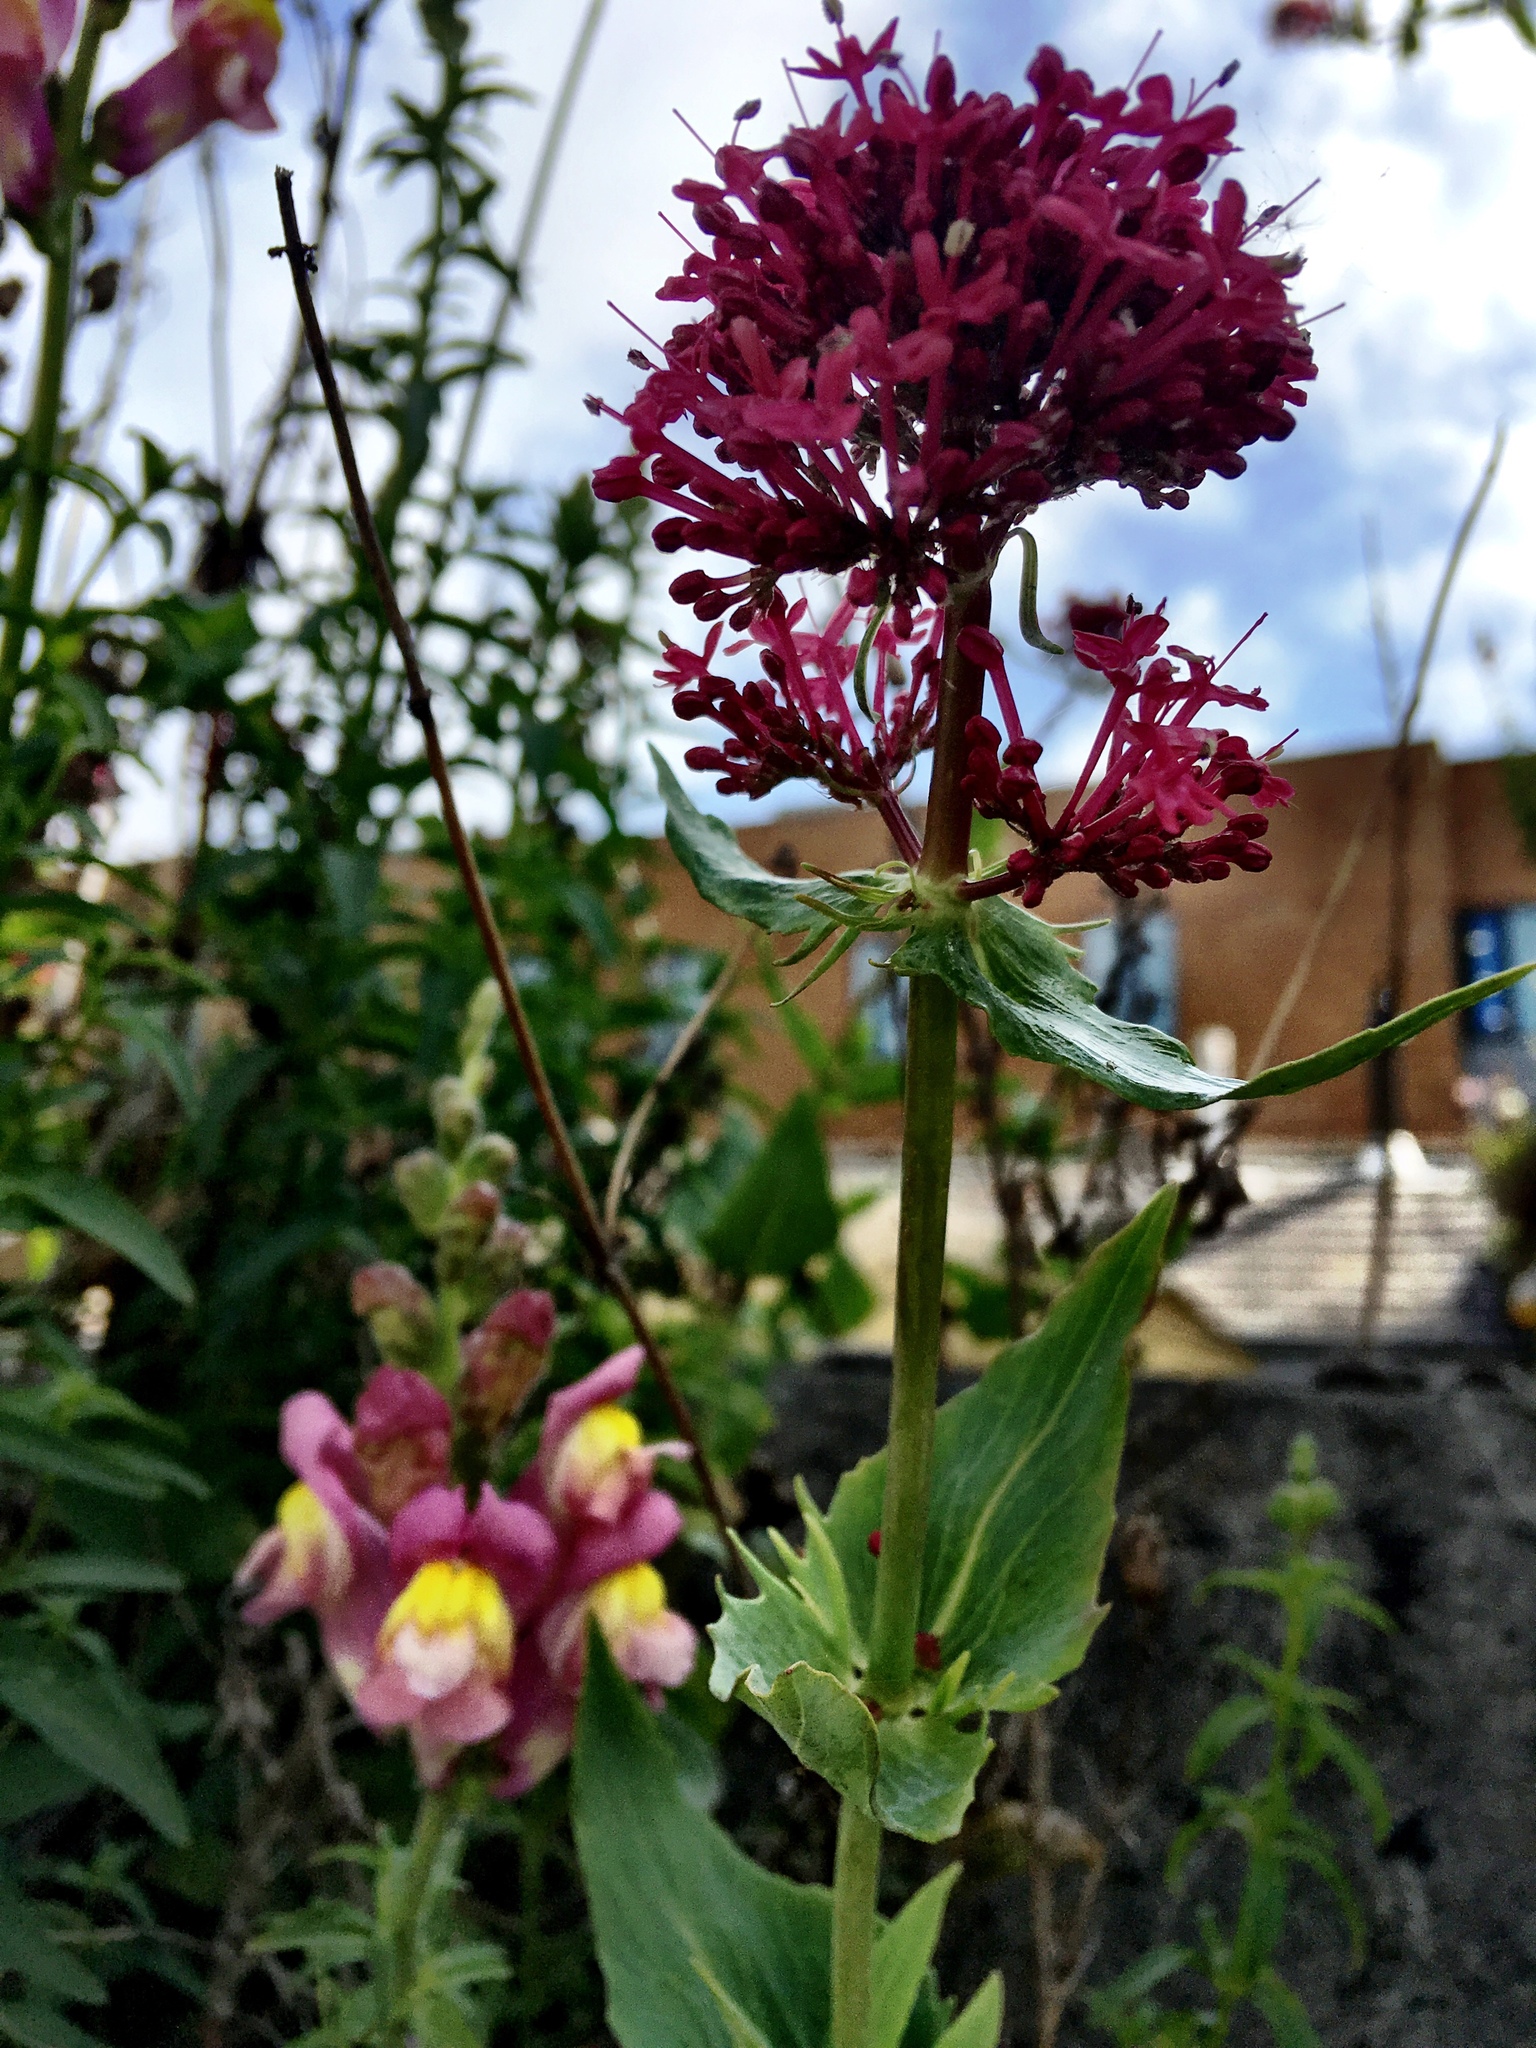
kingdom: Plantae
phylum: Tracheophyta
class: Magnoliopsida
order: Dipsacales
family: Caprifoliaceae
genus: Centranthus
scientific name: Centranthus ruber
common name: Red valerian
